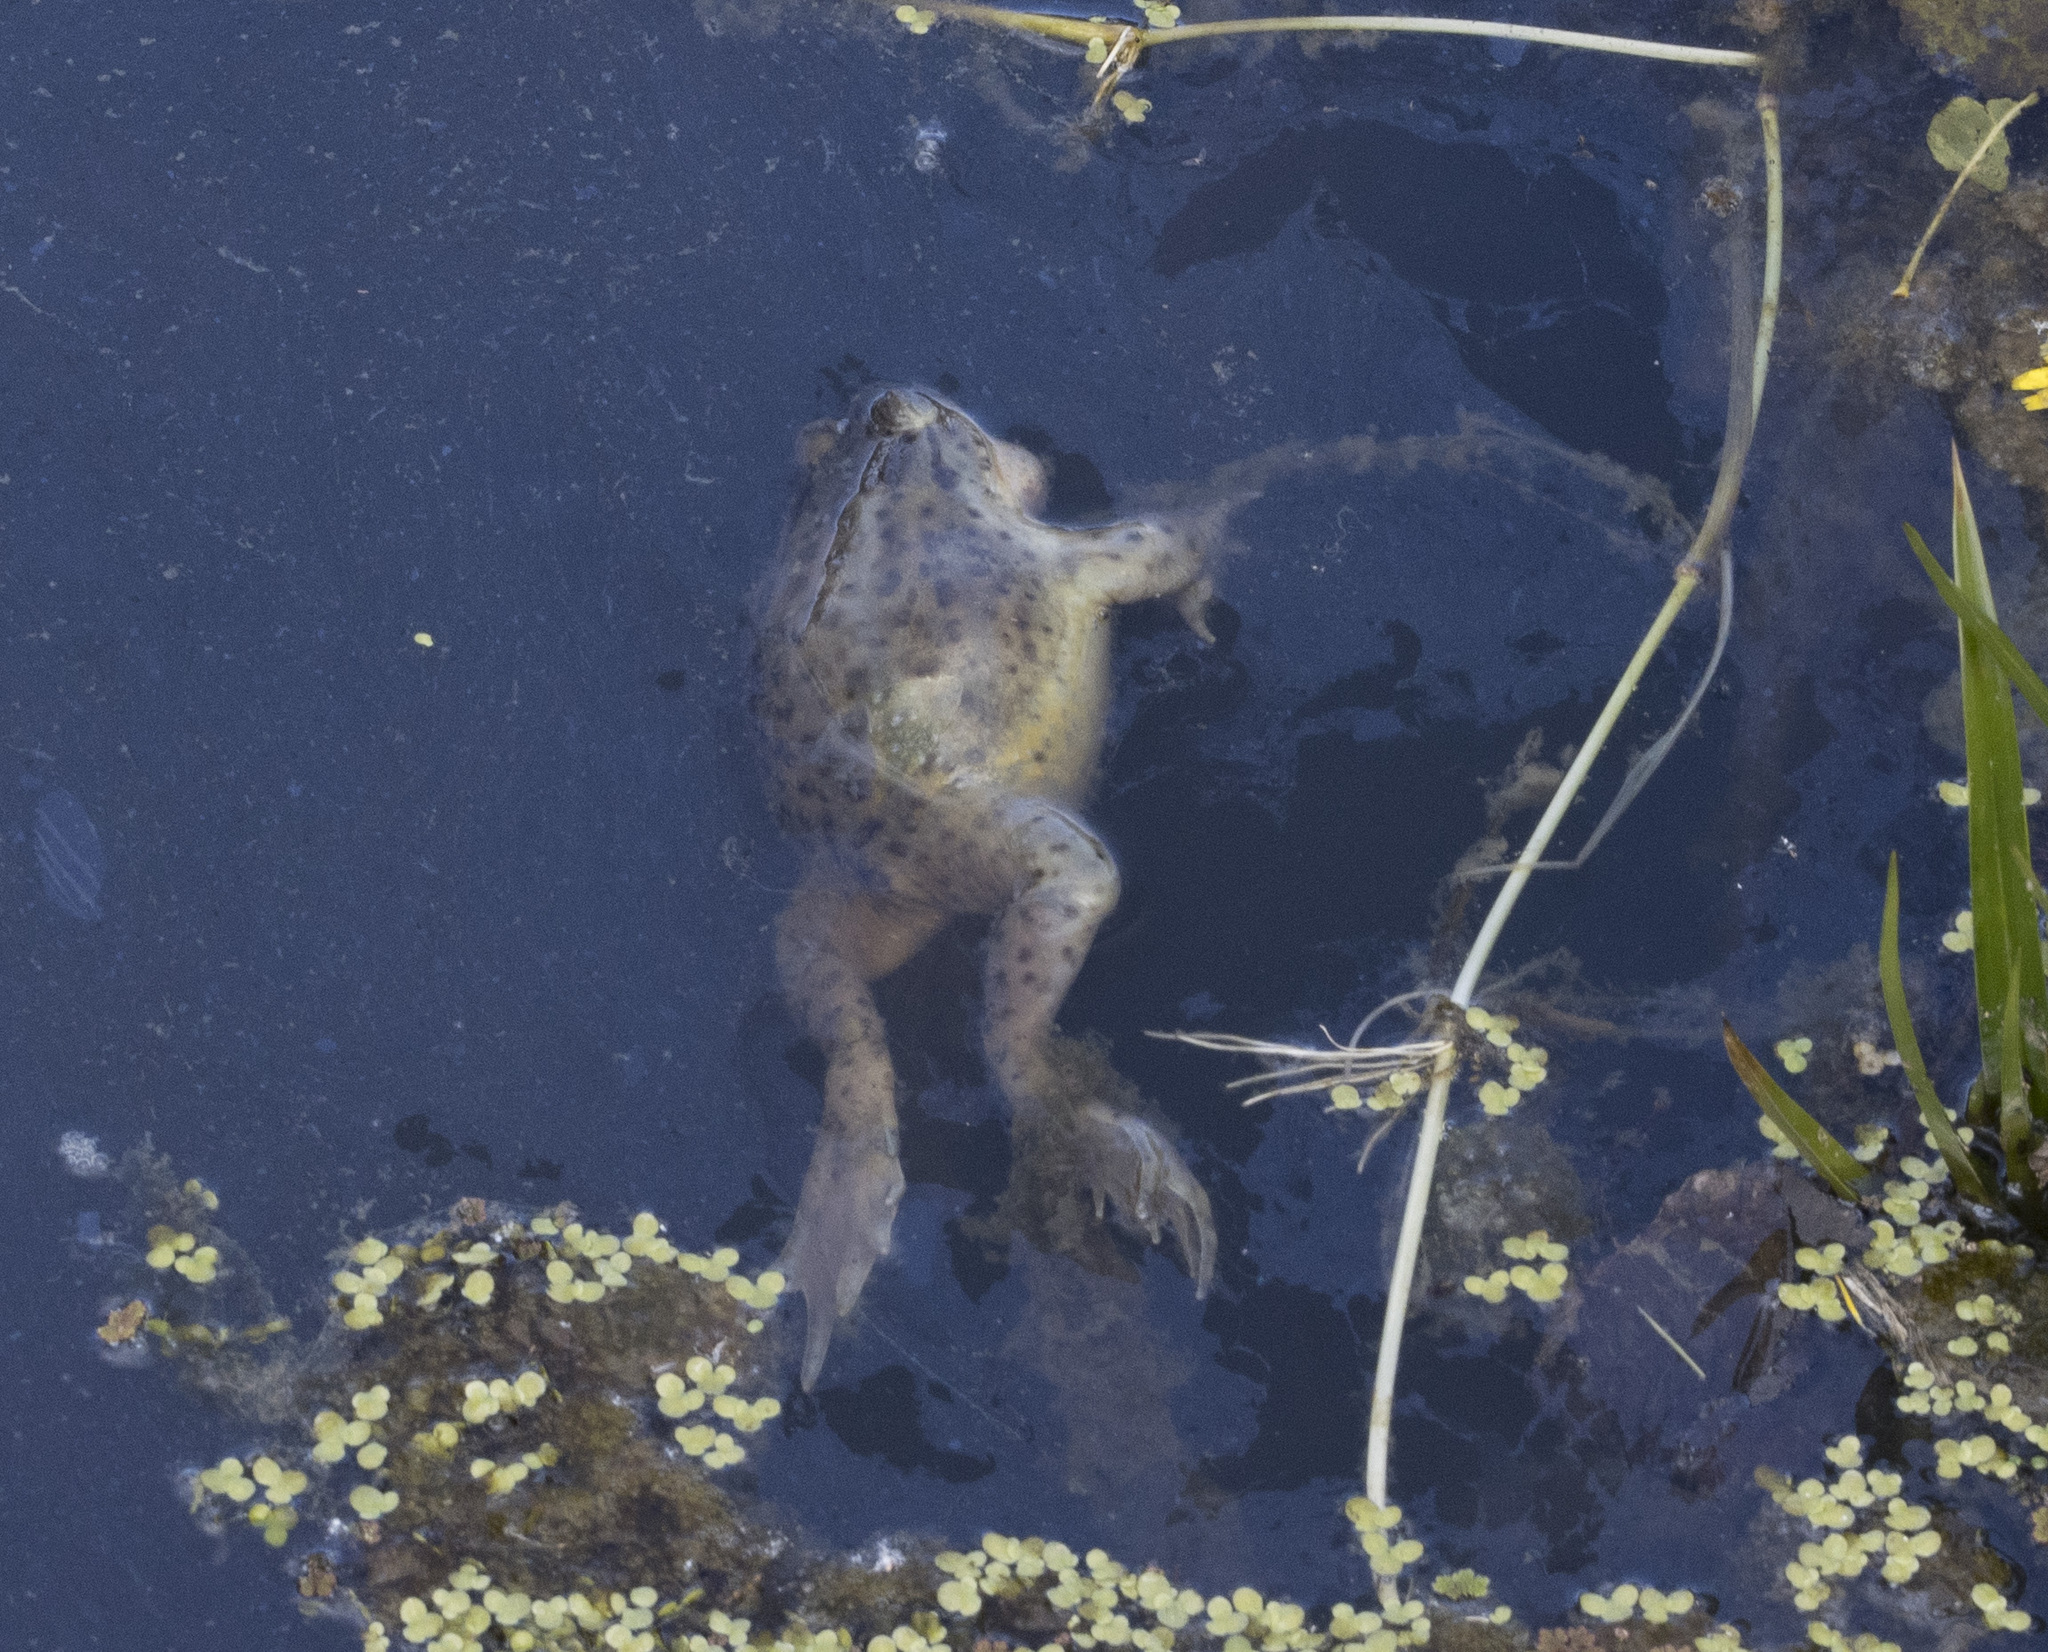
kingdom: Animalia
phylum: Chordata
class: Amphibia
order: Anura
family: Calyptocephalellidae
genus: Calyptocephalella
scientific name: Calyptocephalella gayi
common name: Chilean toad
